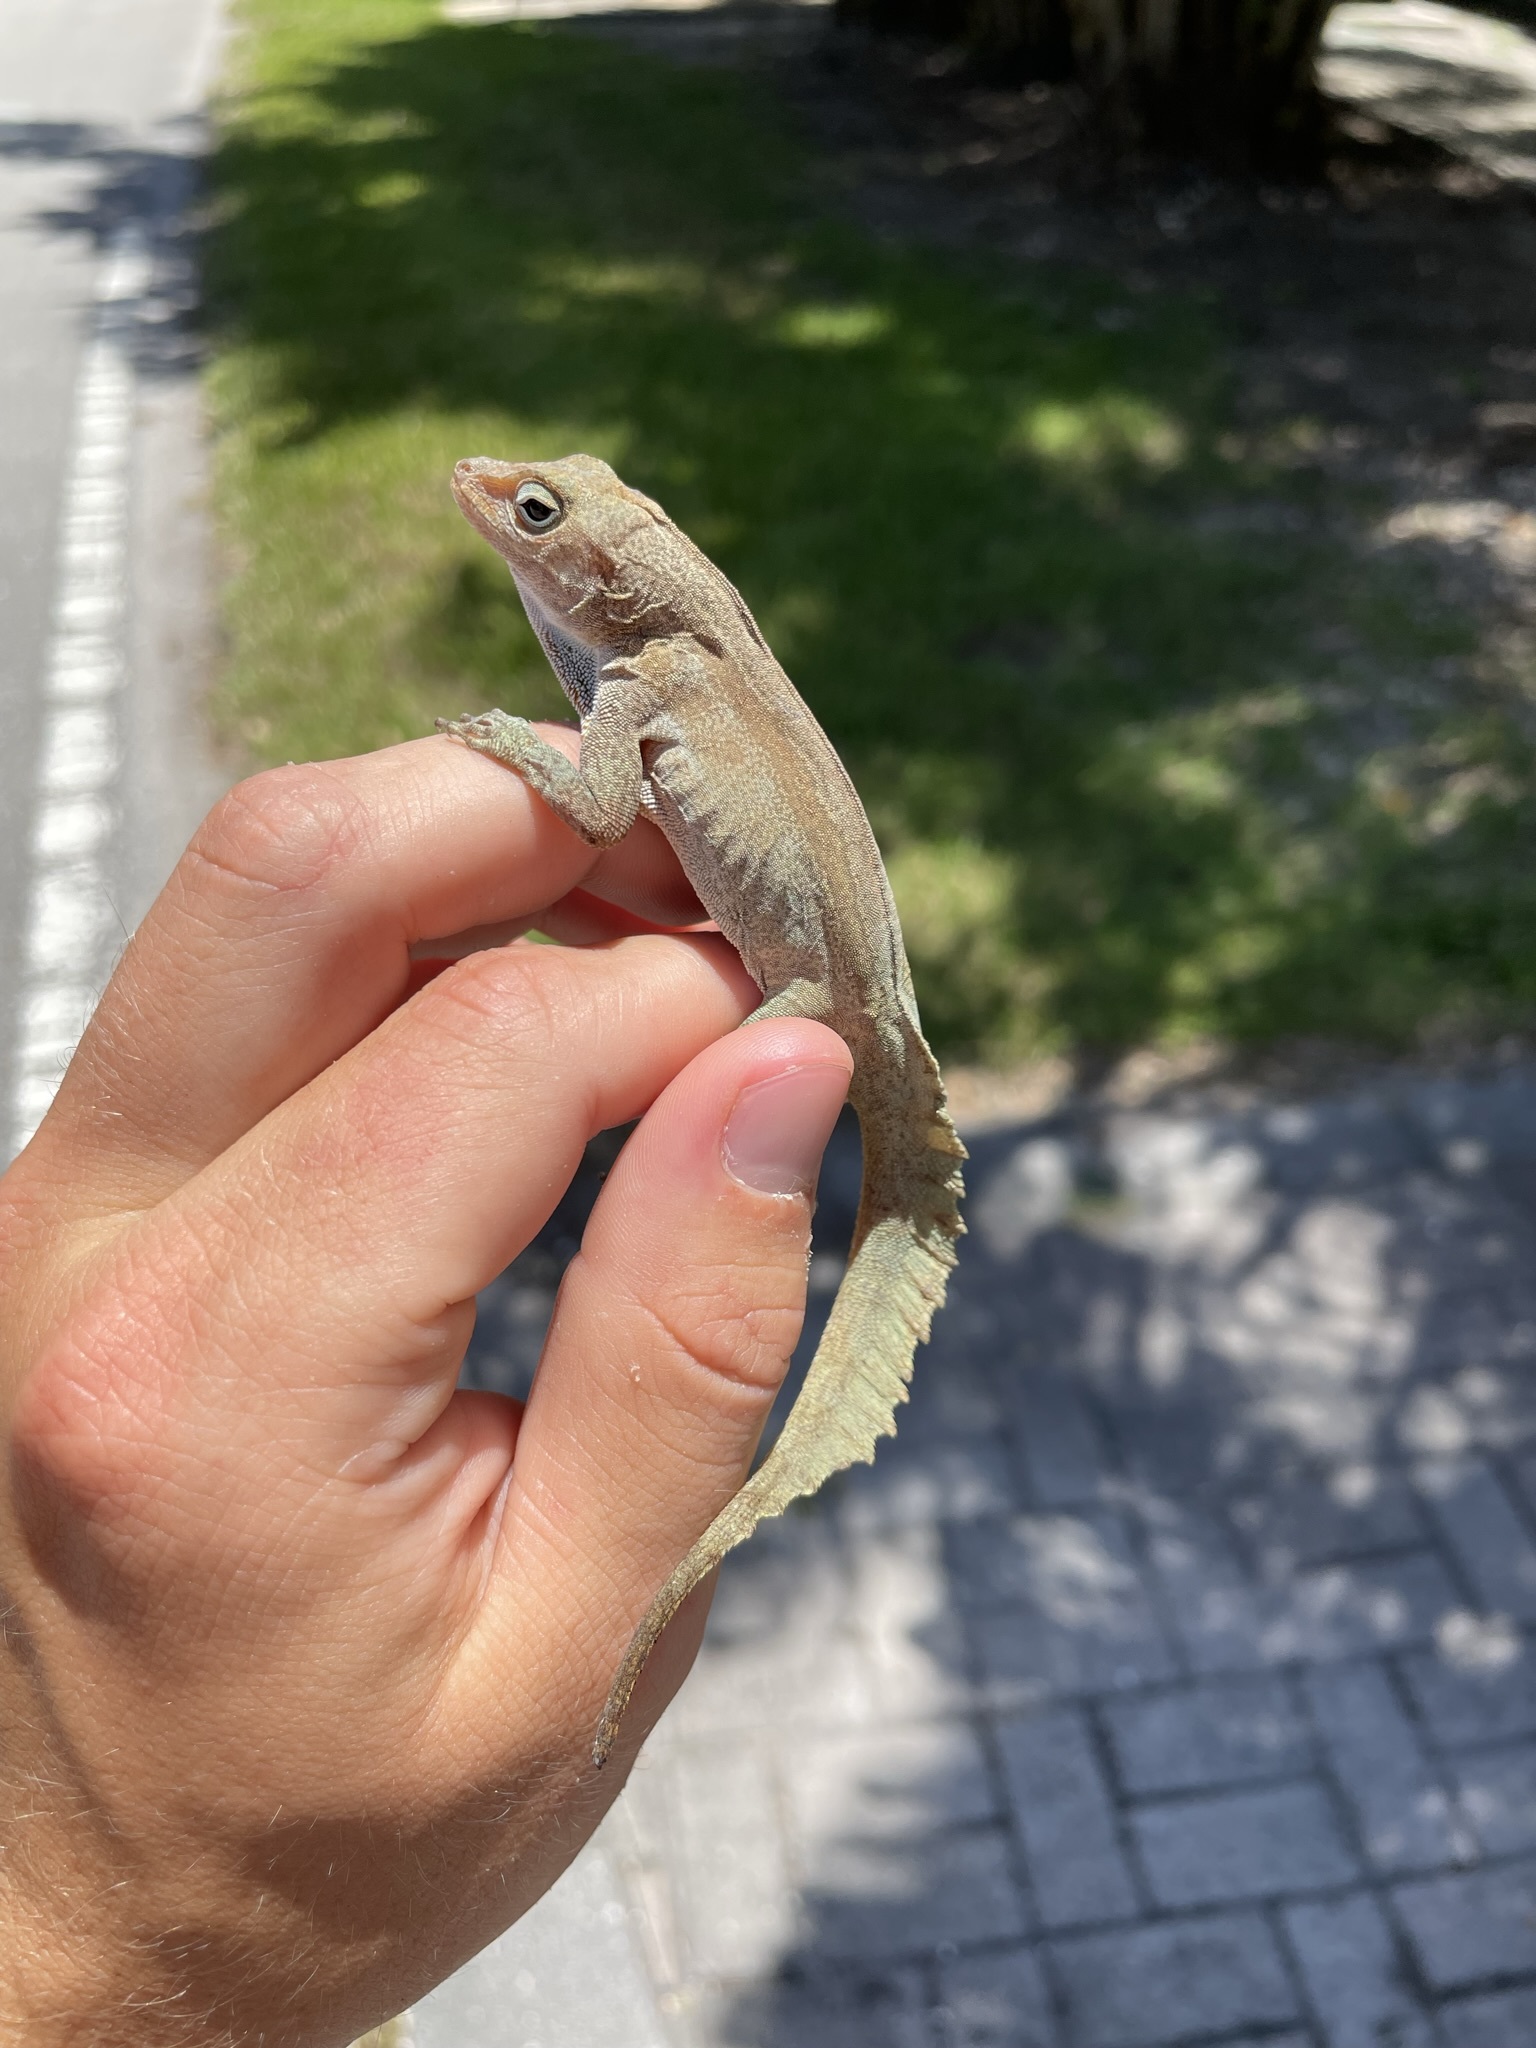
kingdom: Animalia
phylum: Chordata
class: Squamata
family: Dactyloidae
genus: Anolis
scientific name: Anolis cristatellus
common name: Crested anole
